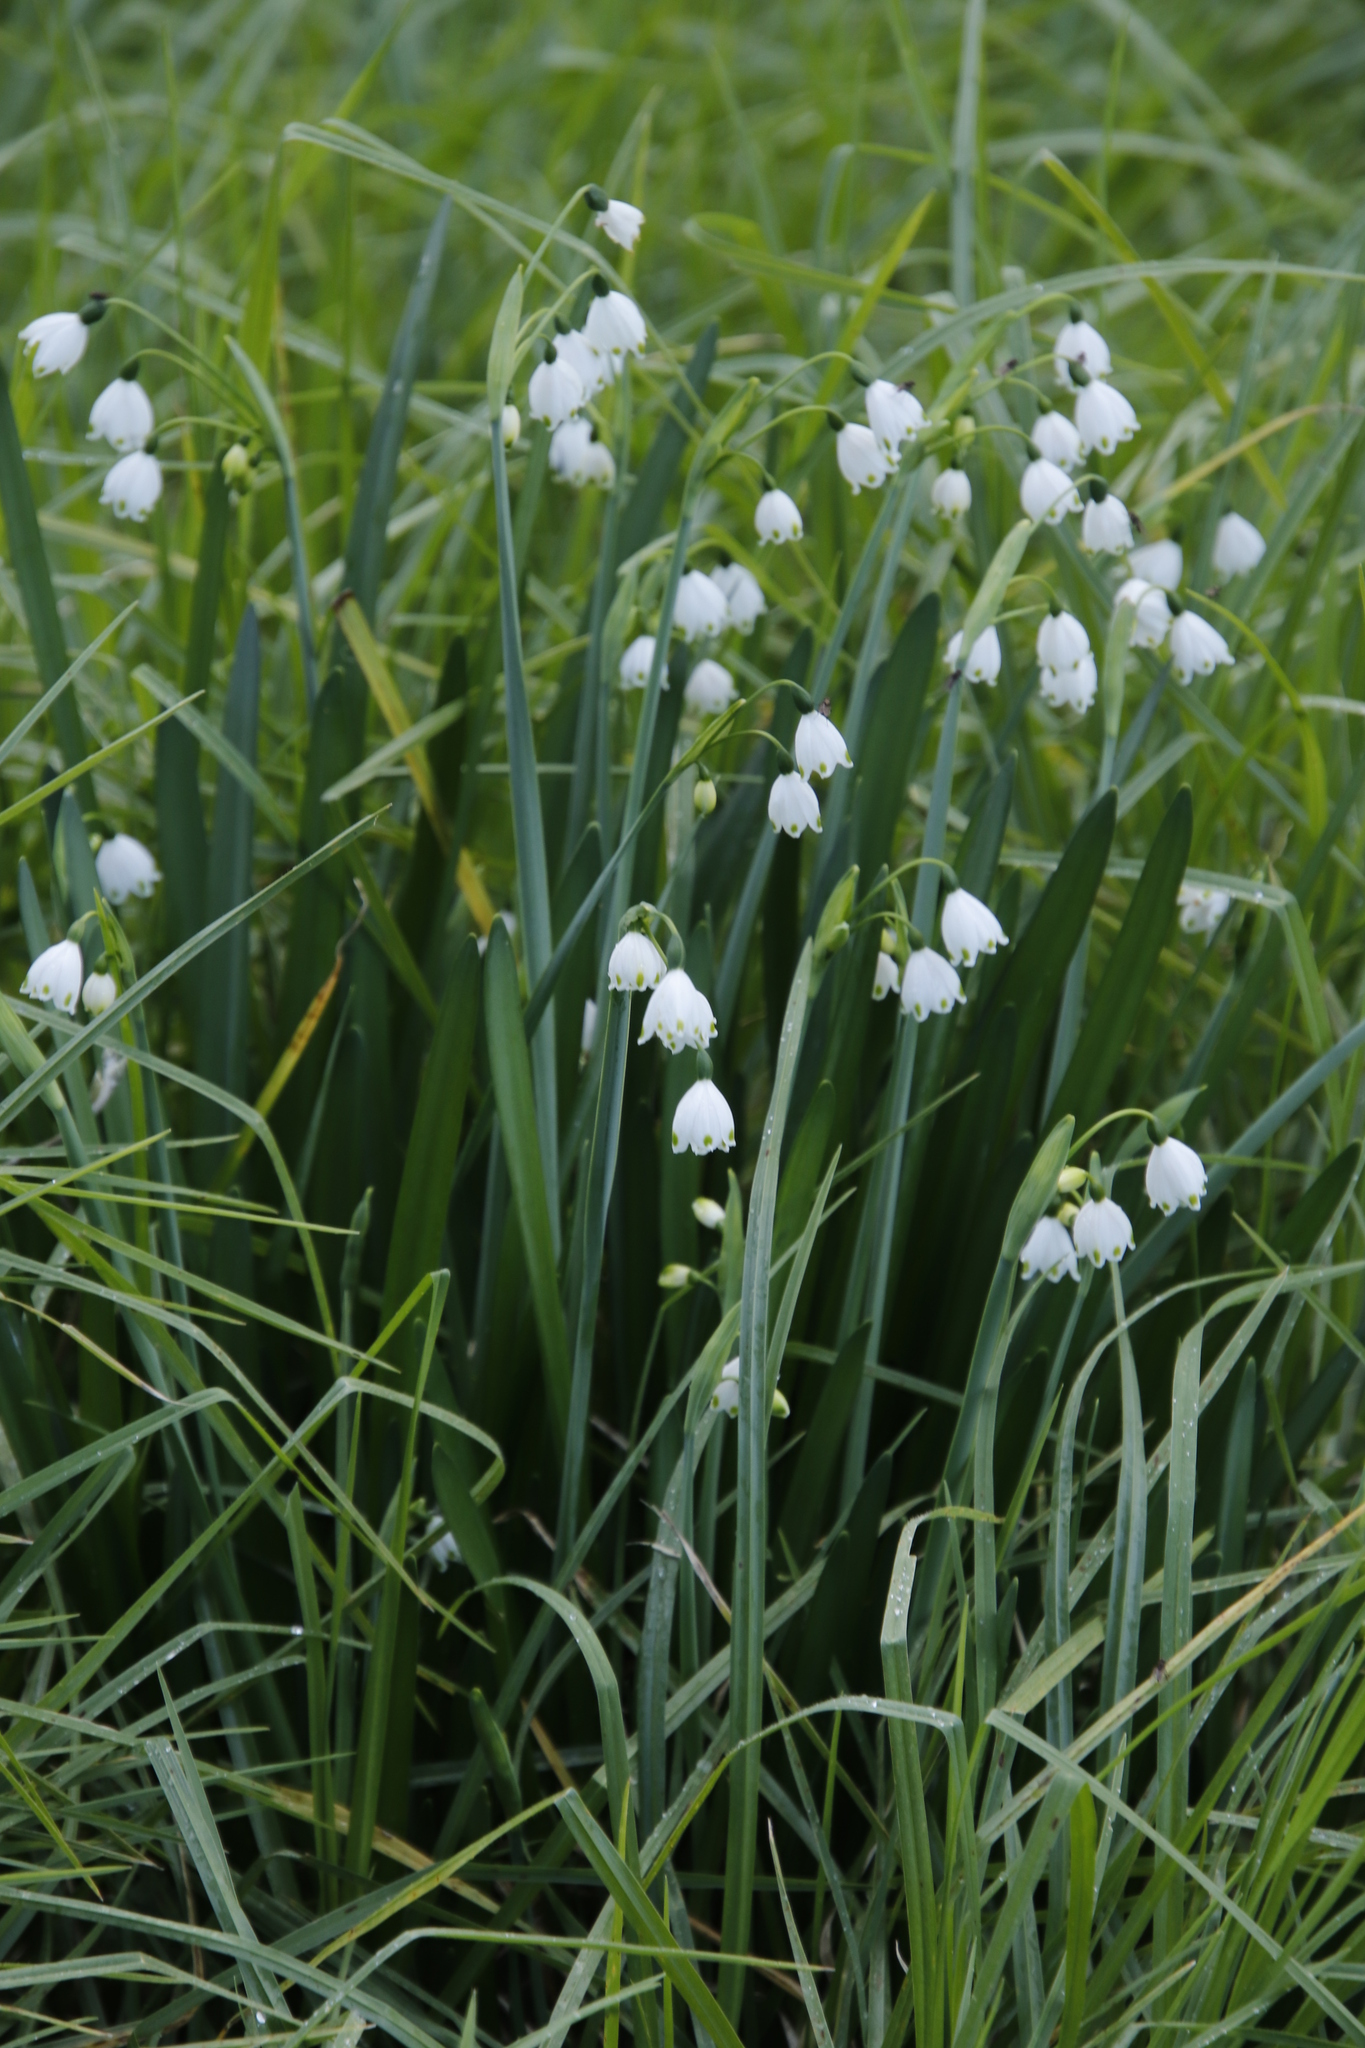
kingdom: Plantae
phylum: Tracheophyta
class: Liliopsida
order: Asparagales
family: Amaryllidaceae
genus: Leucojum
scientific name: Leucojum aestivum
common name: Summer snowflake
